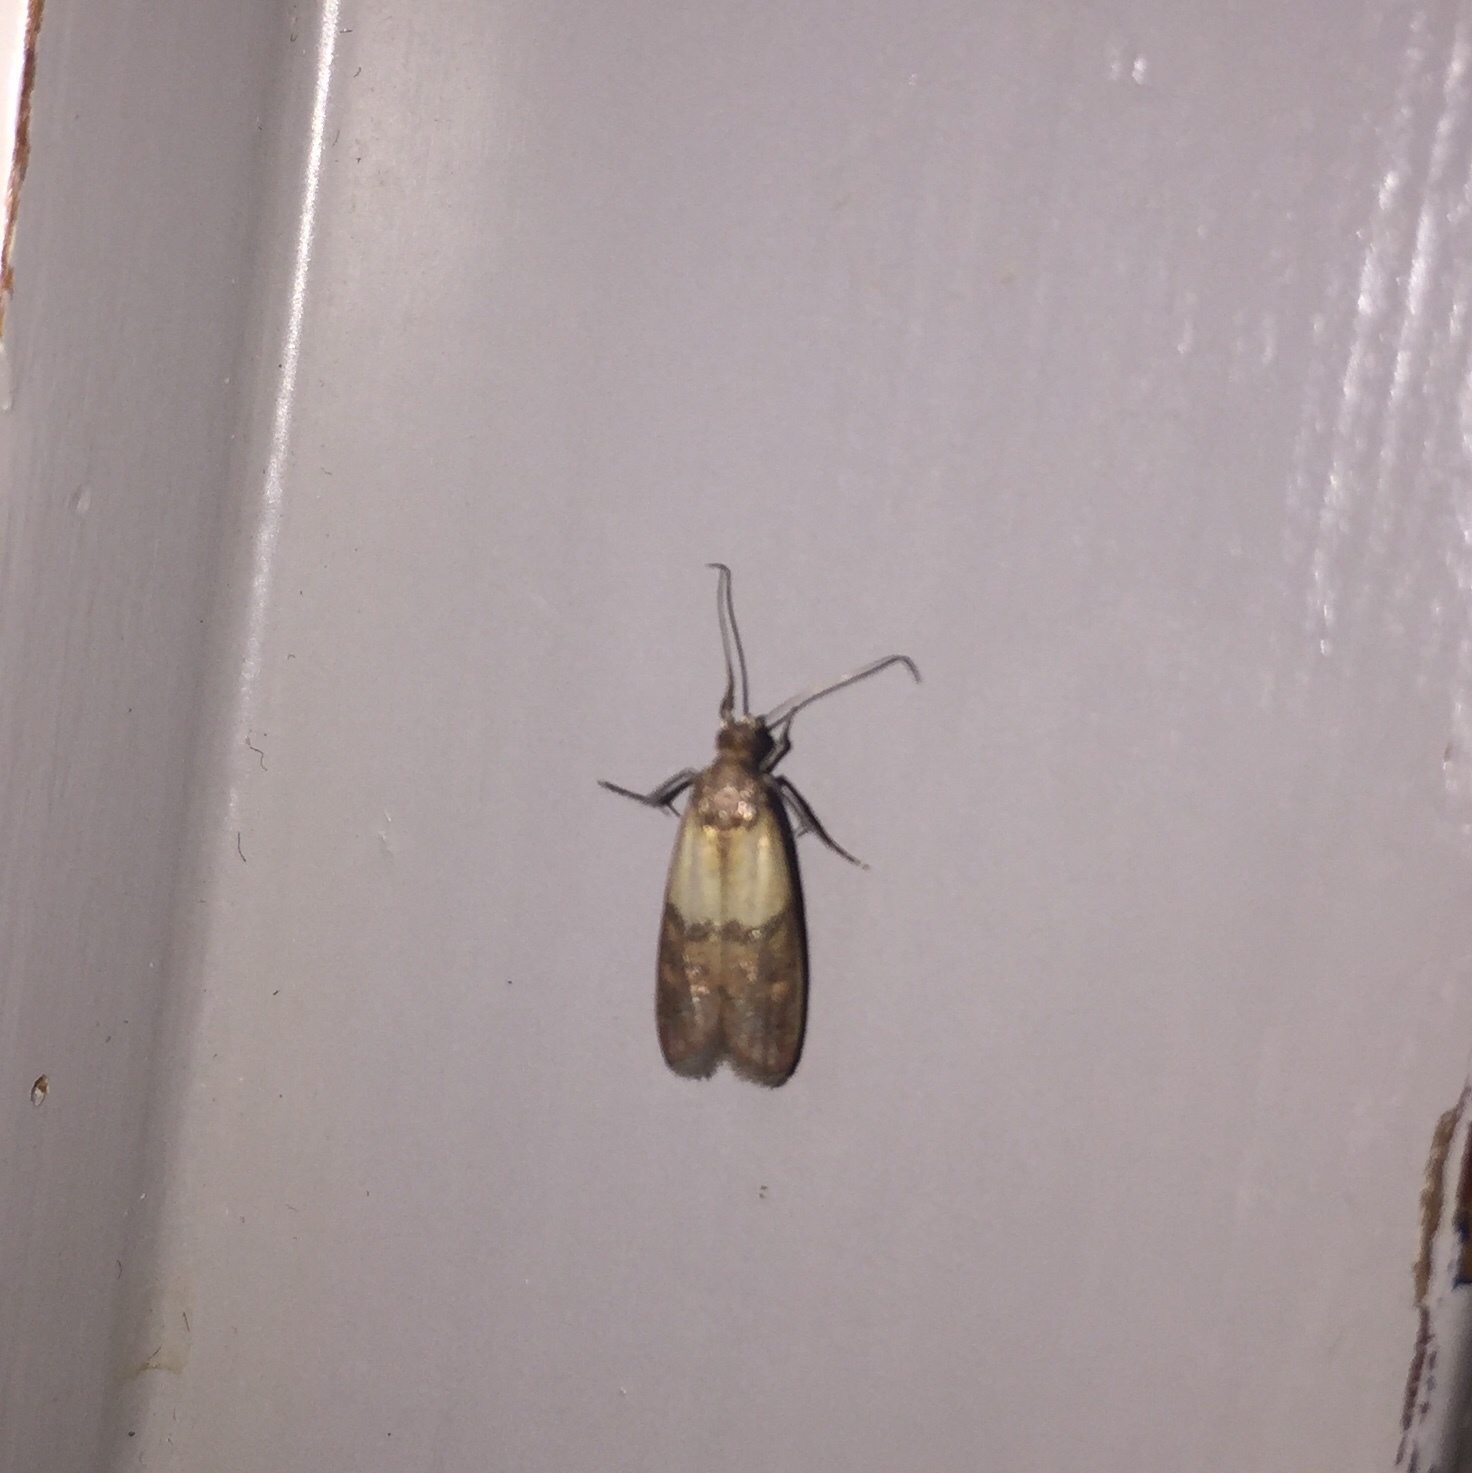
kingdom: Animalia
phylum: Arthropoda
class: Insecta
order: Lepidoptera
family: Pyralidae
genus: Plodia
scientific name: Plodia interpunctella
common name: Indian meal moth
